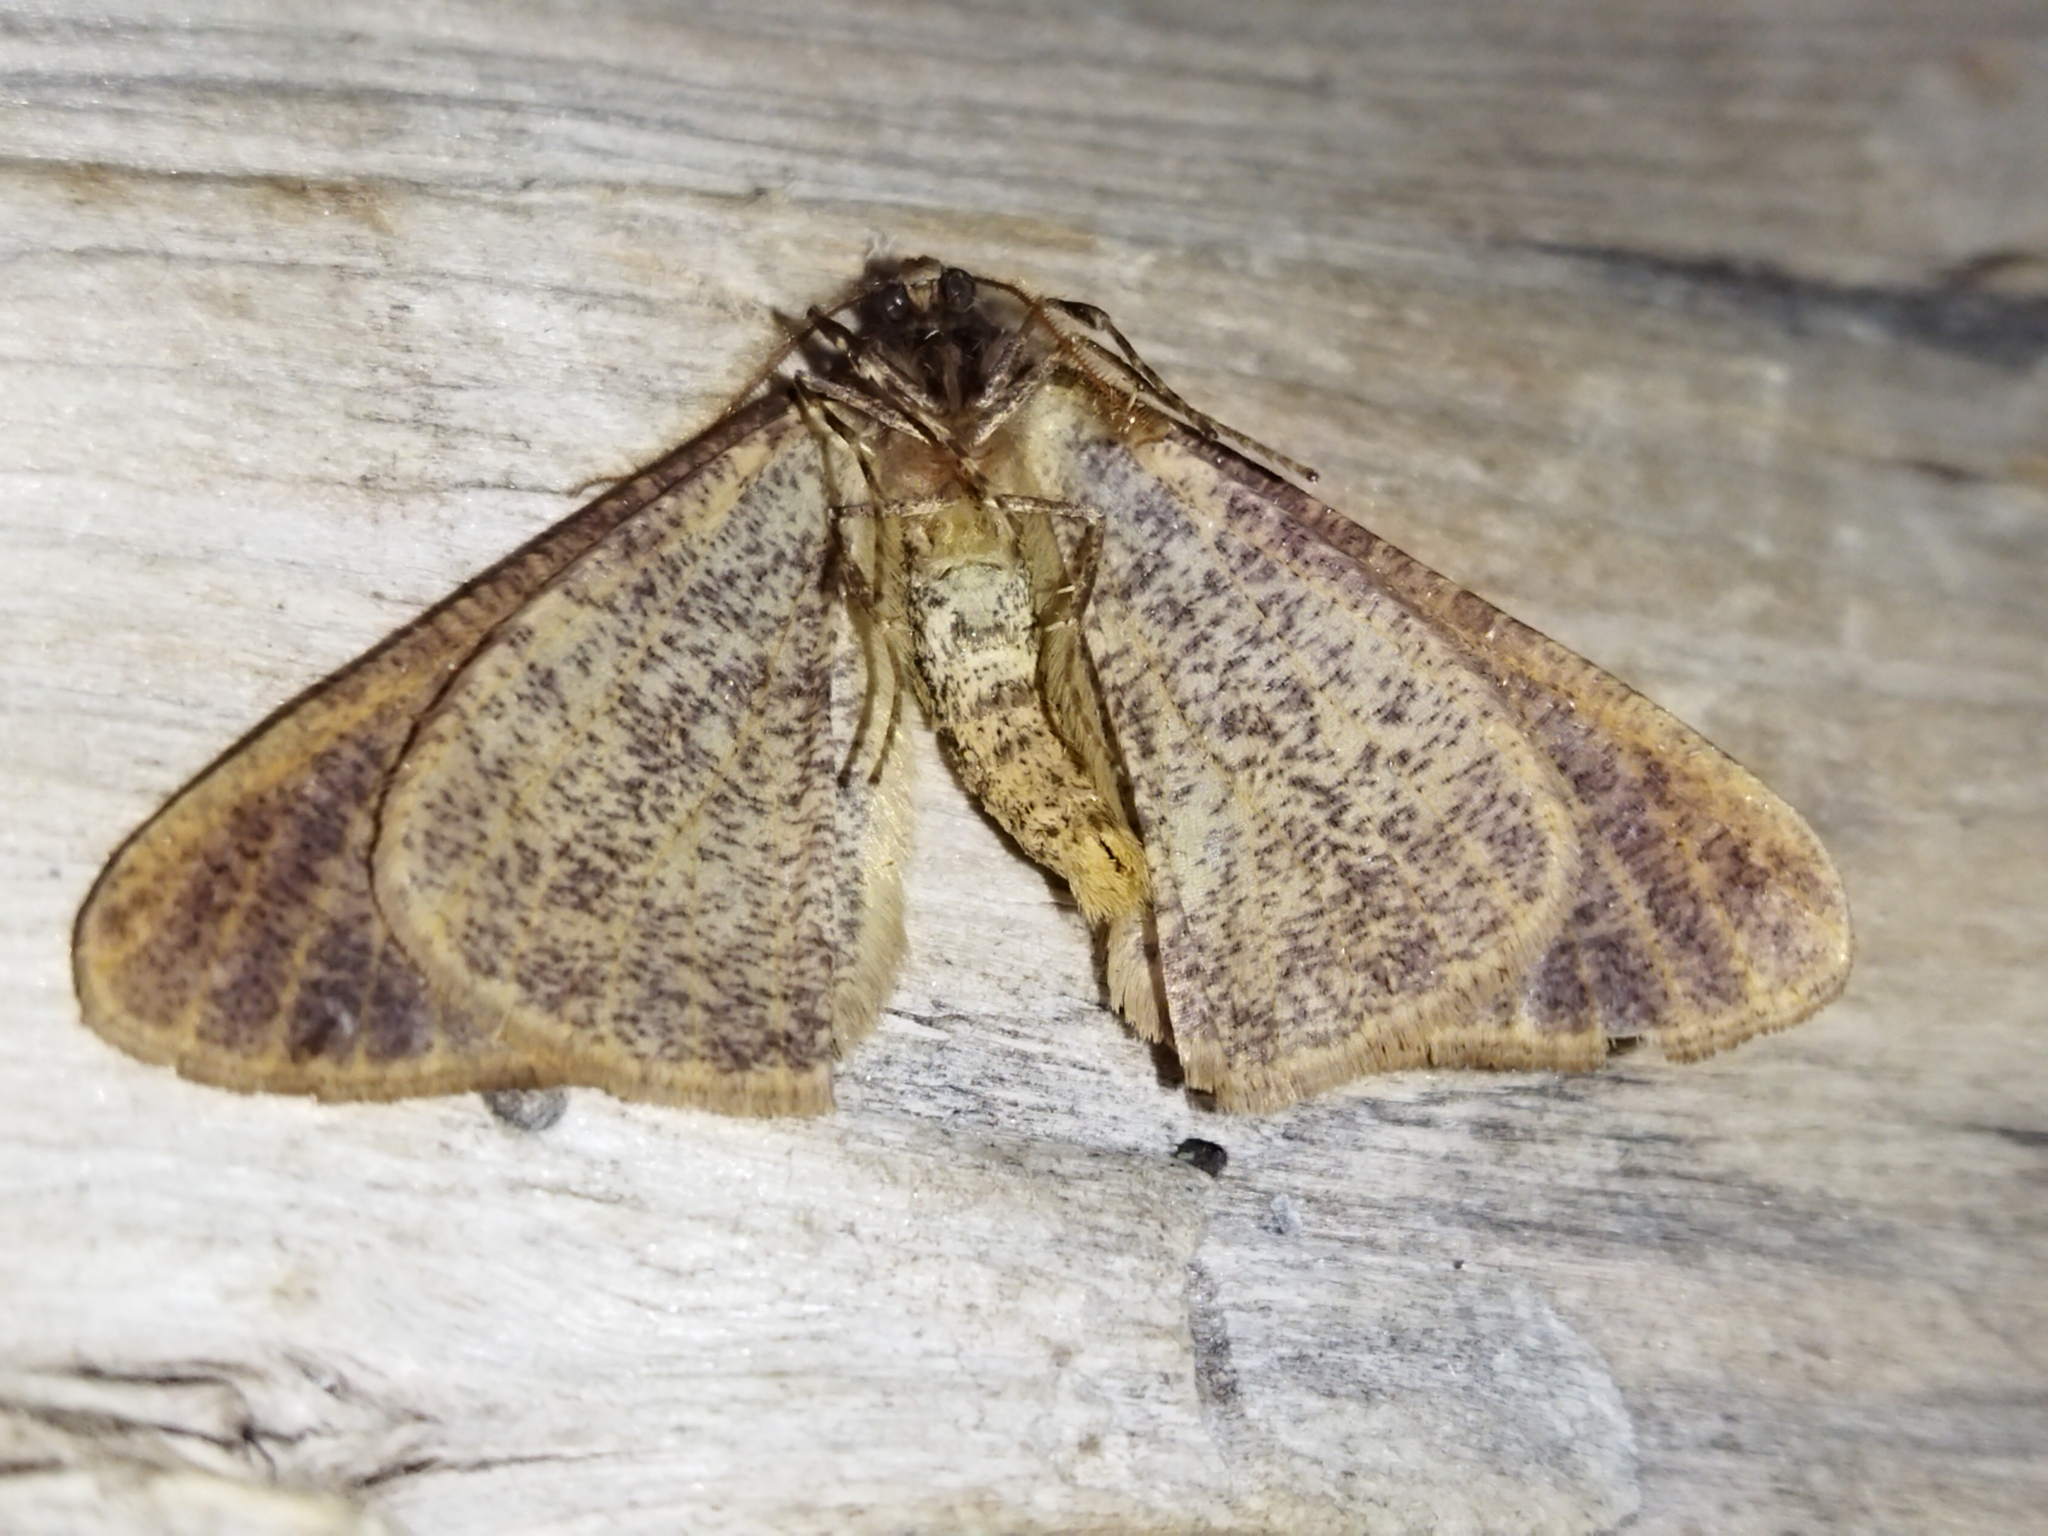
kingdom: Animalia
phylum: Arthropoda
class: Insecta
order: Lepidoptera
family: Geometridae
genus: Erannis
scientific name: Erannis defoliaria
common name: Mottled umber
